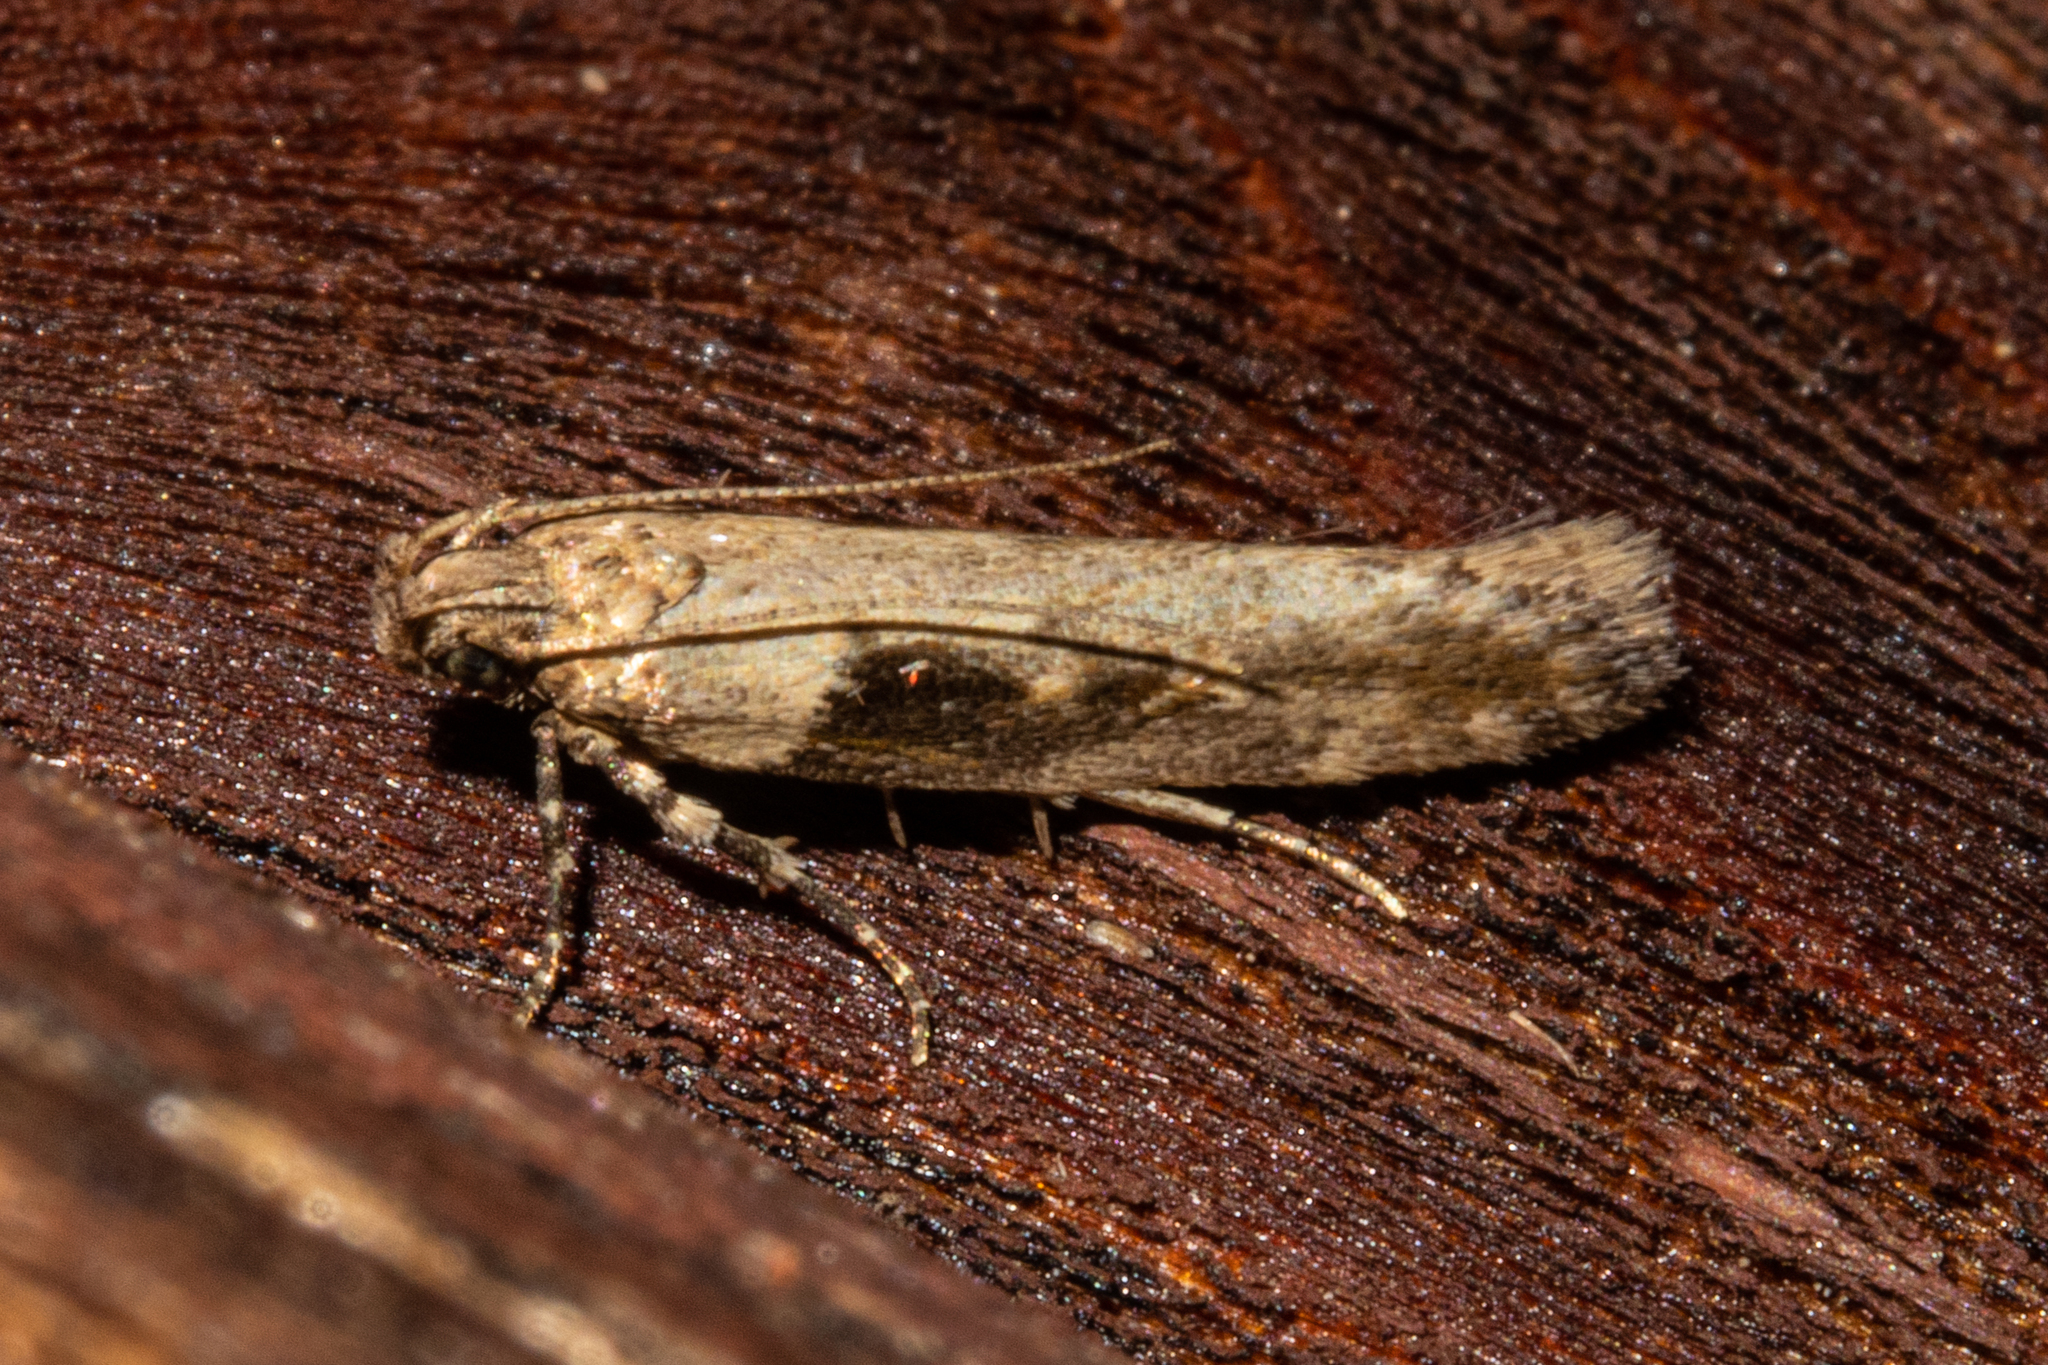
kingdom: Animalia
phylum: Arthropoda
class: Insecta
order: Lepidoptera
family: Gelechiidae
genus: Symmetrischema
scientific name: Symmetrischema tangolias
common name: Moth
